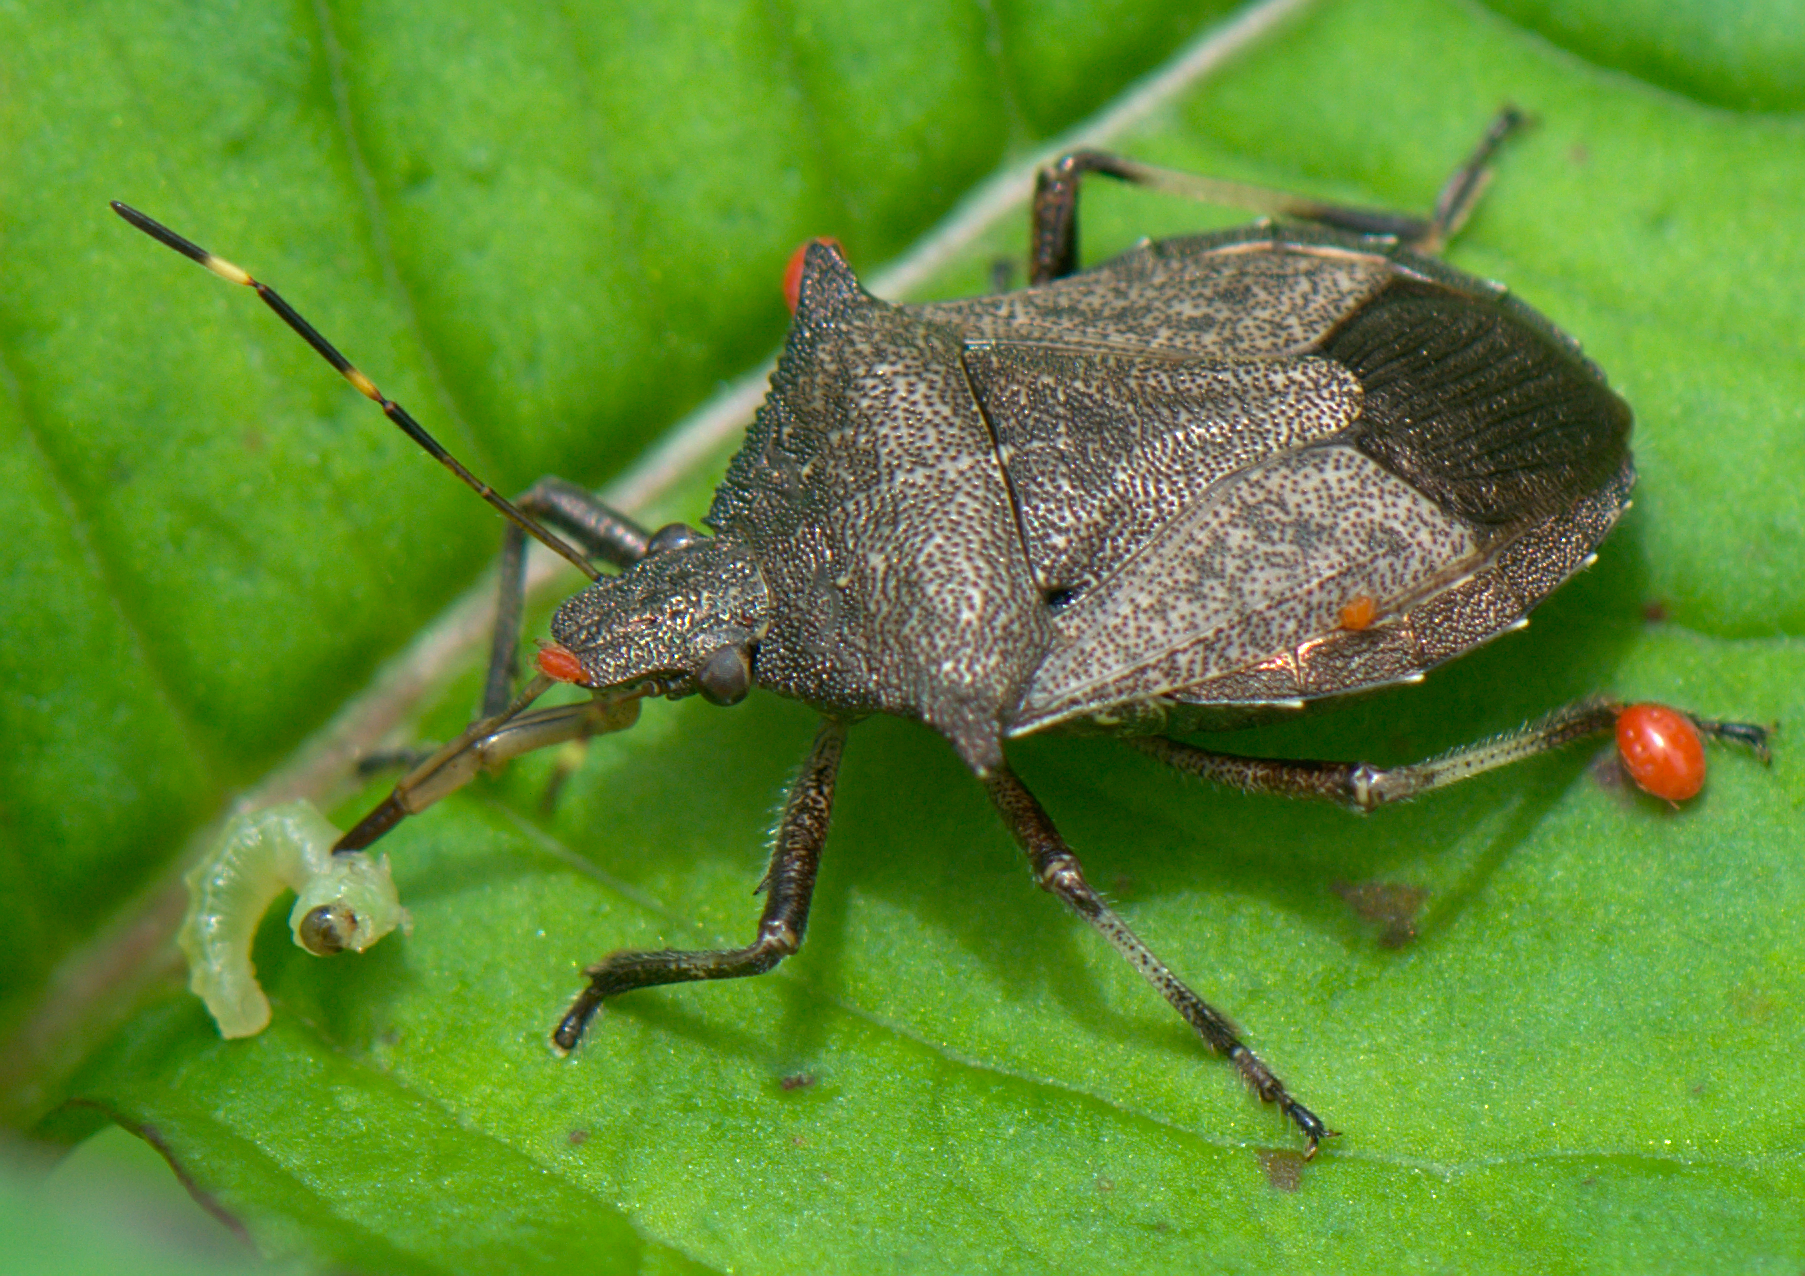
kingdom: Animalia
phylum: Arthropoda
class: Insecta
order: Hemiptera
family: Pentatomidae
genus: Picromerus
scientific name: Picromerus griseus
